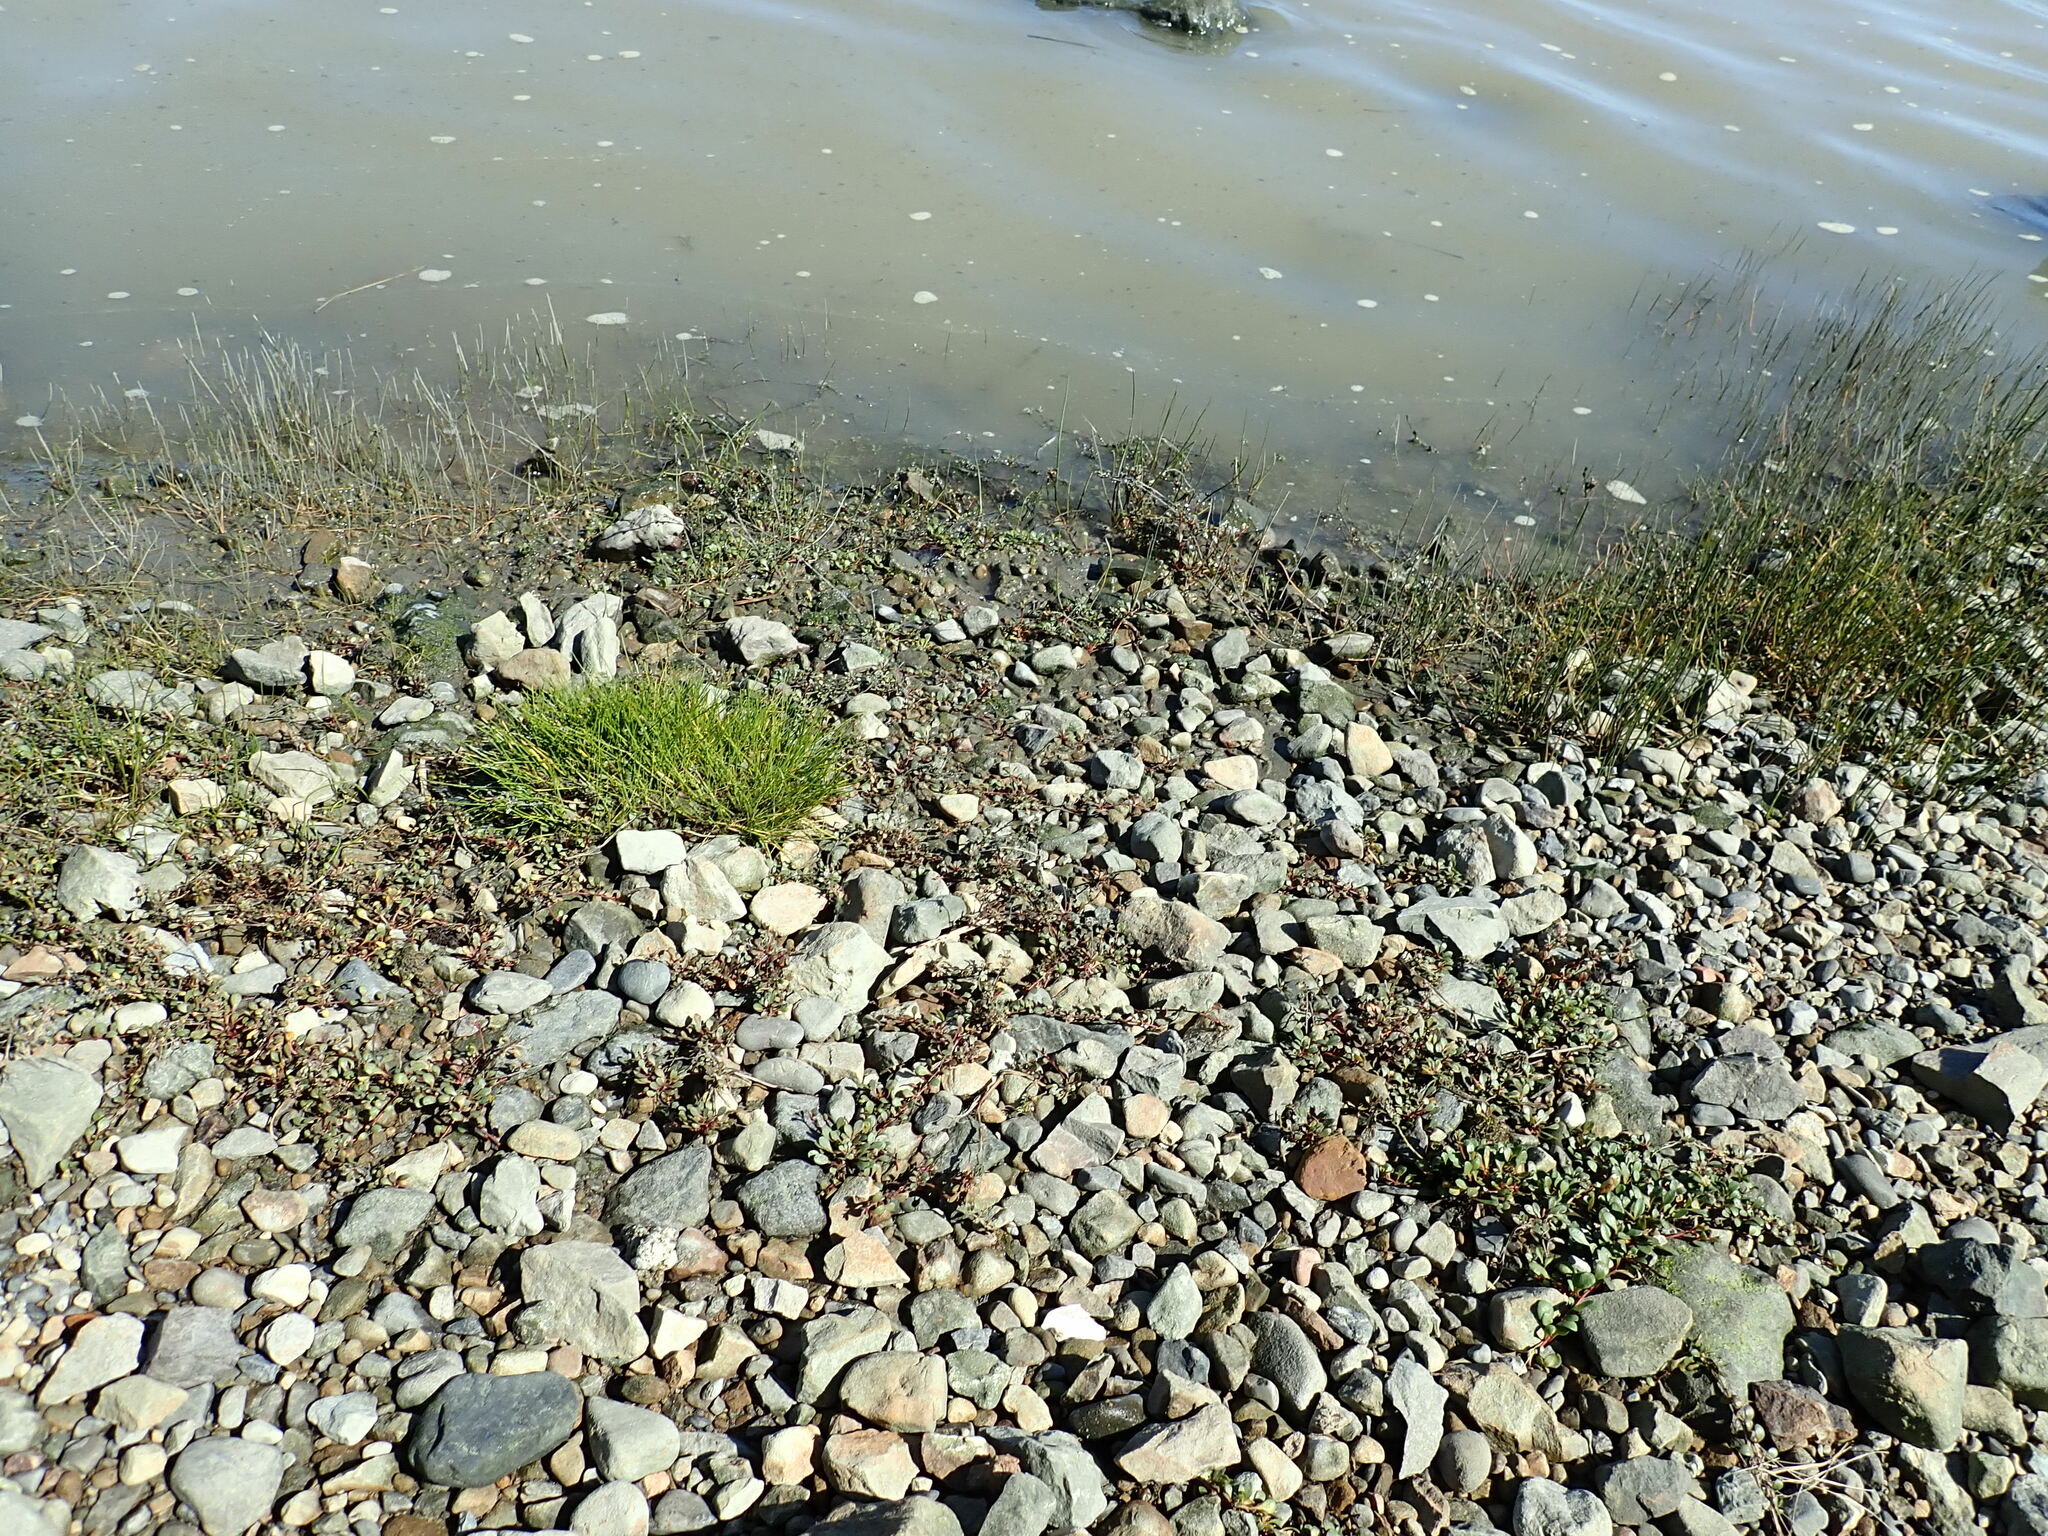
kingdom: Plantae
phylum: Tracheophyta
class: Magnoliopsida
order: Ericales
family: Primulaceae
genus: Samolus
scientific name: Samolus repens
